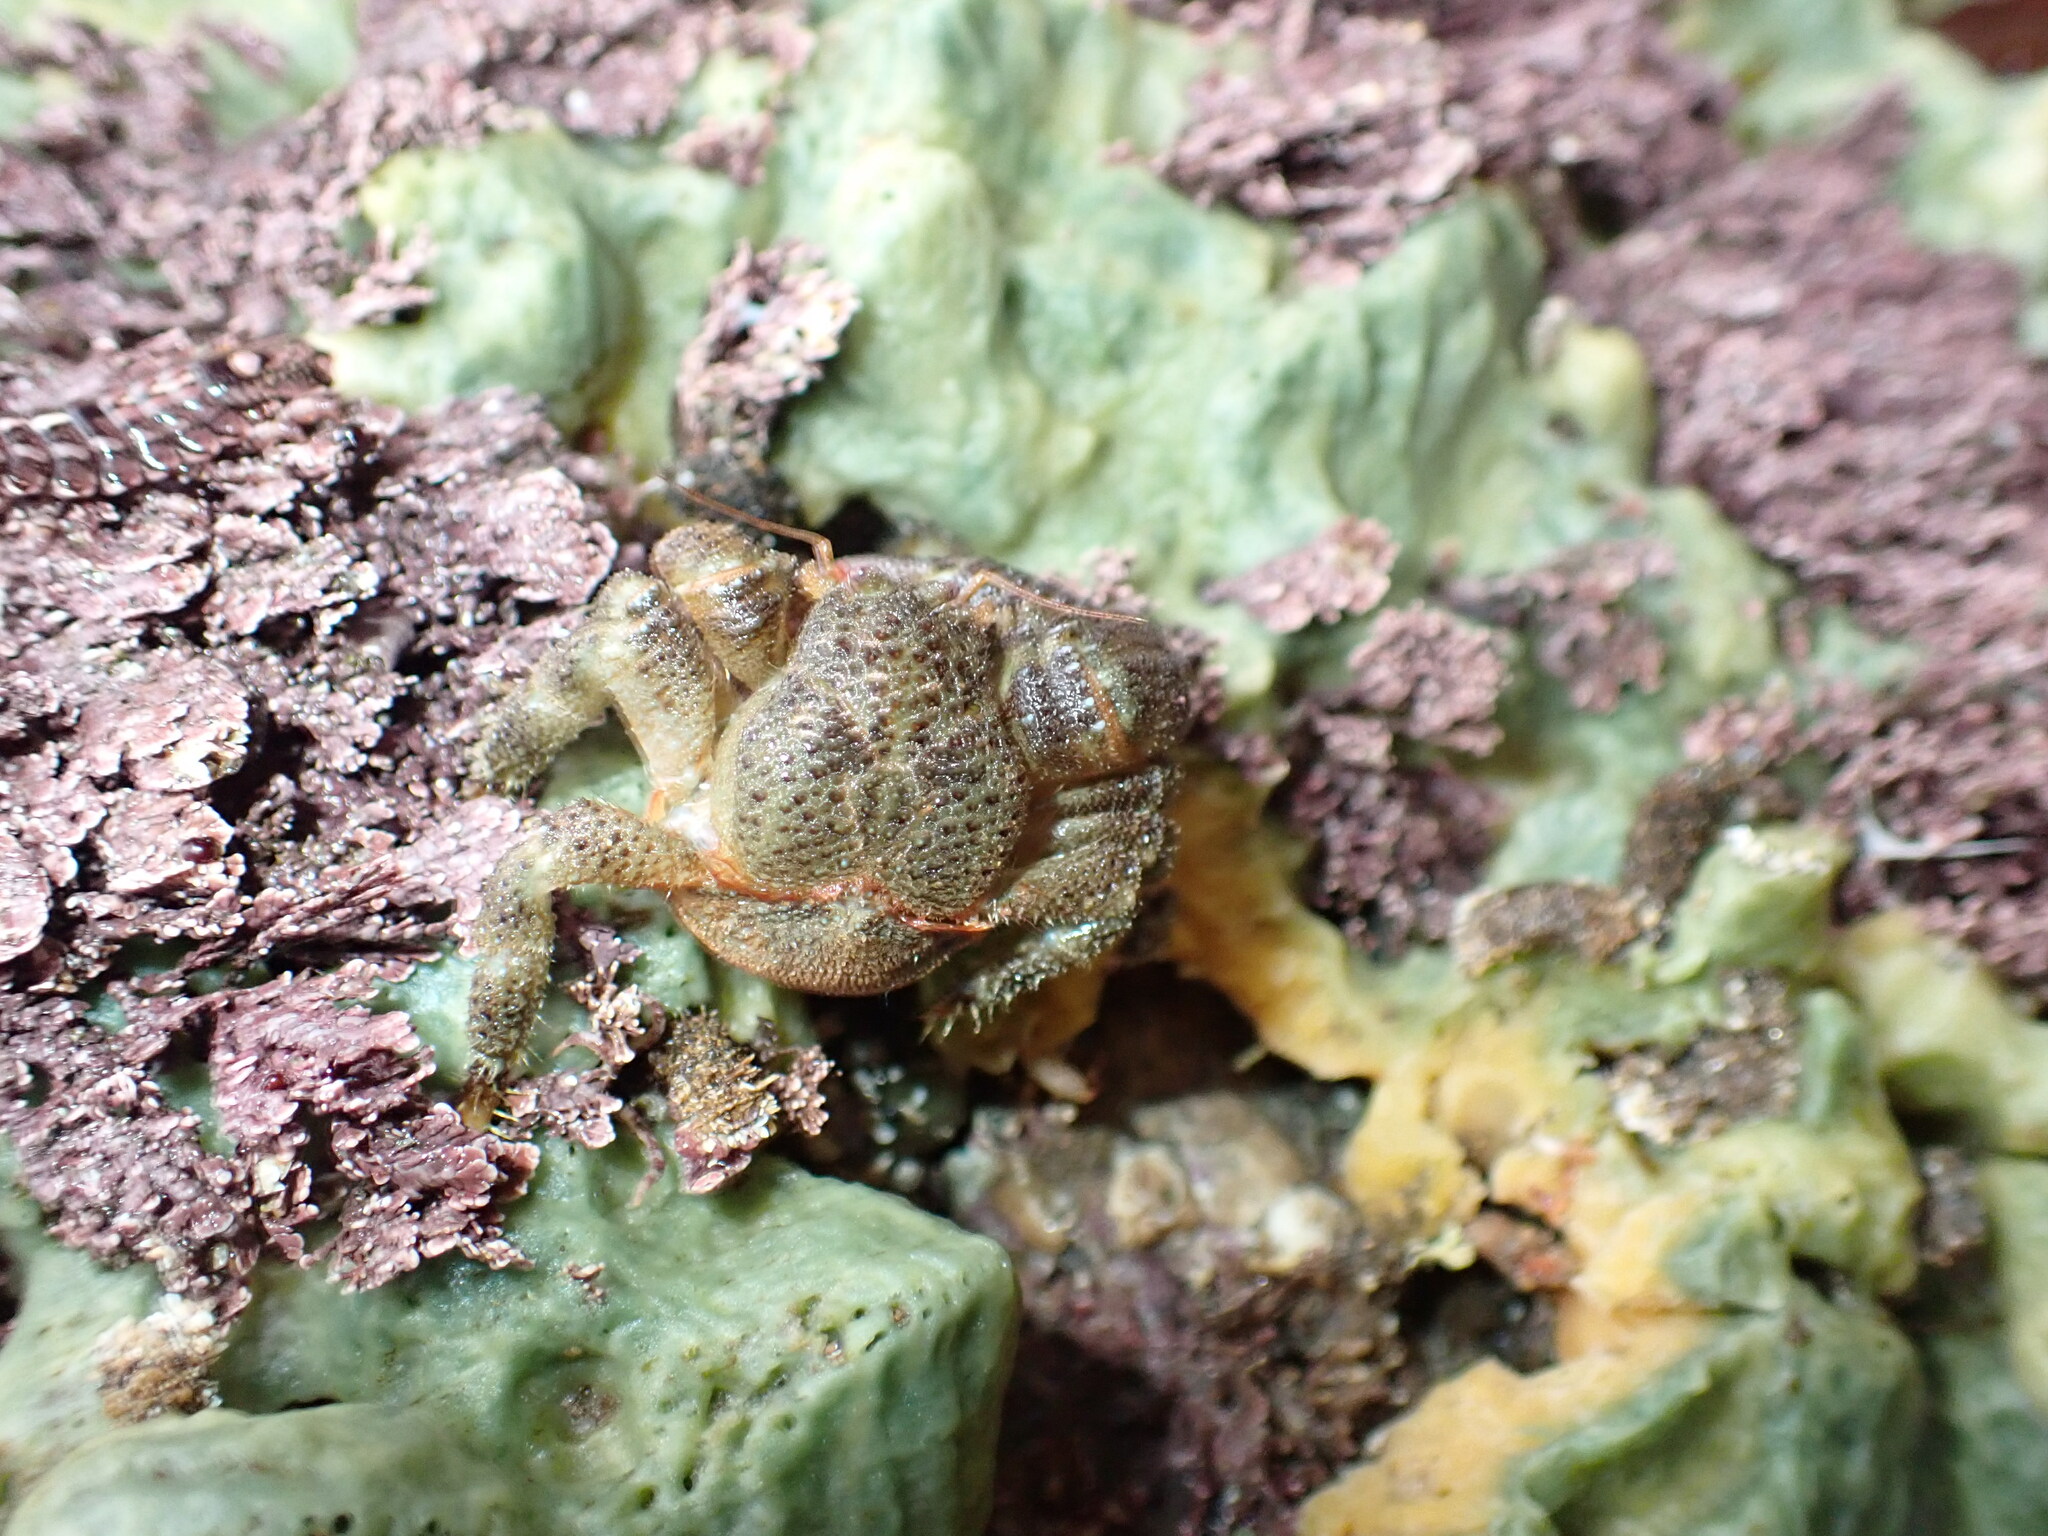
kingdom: Animalia
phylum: Arthropoda
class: Malacostraca
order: Decapoda
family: Hapalogastridae
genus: Oedignathus
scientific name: Oedignathus inermis
